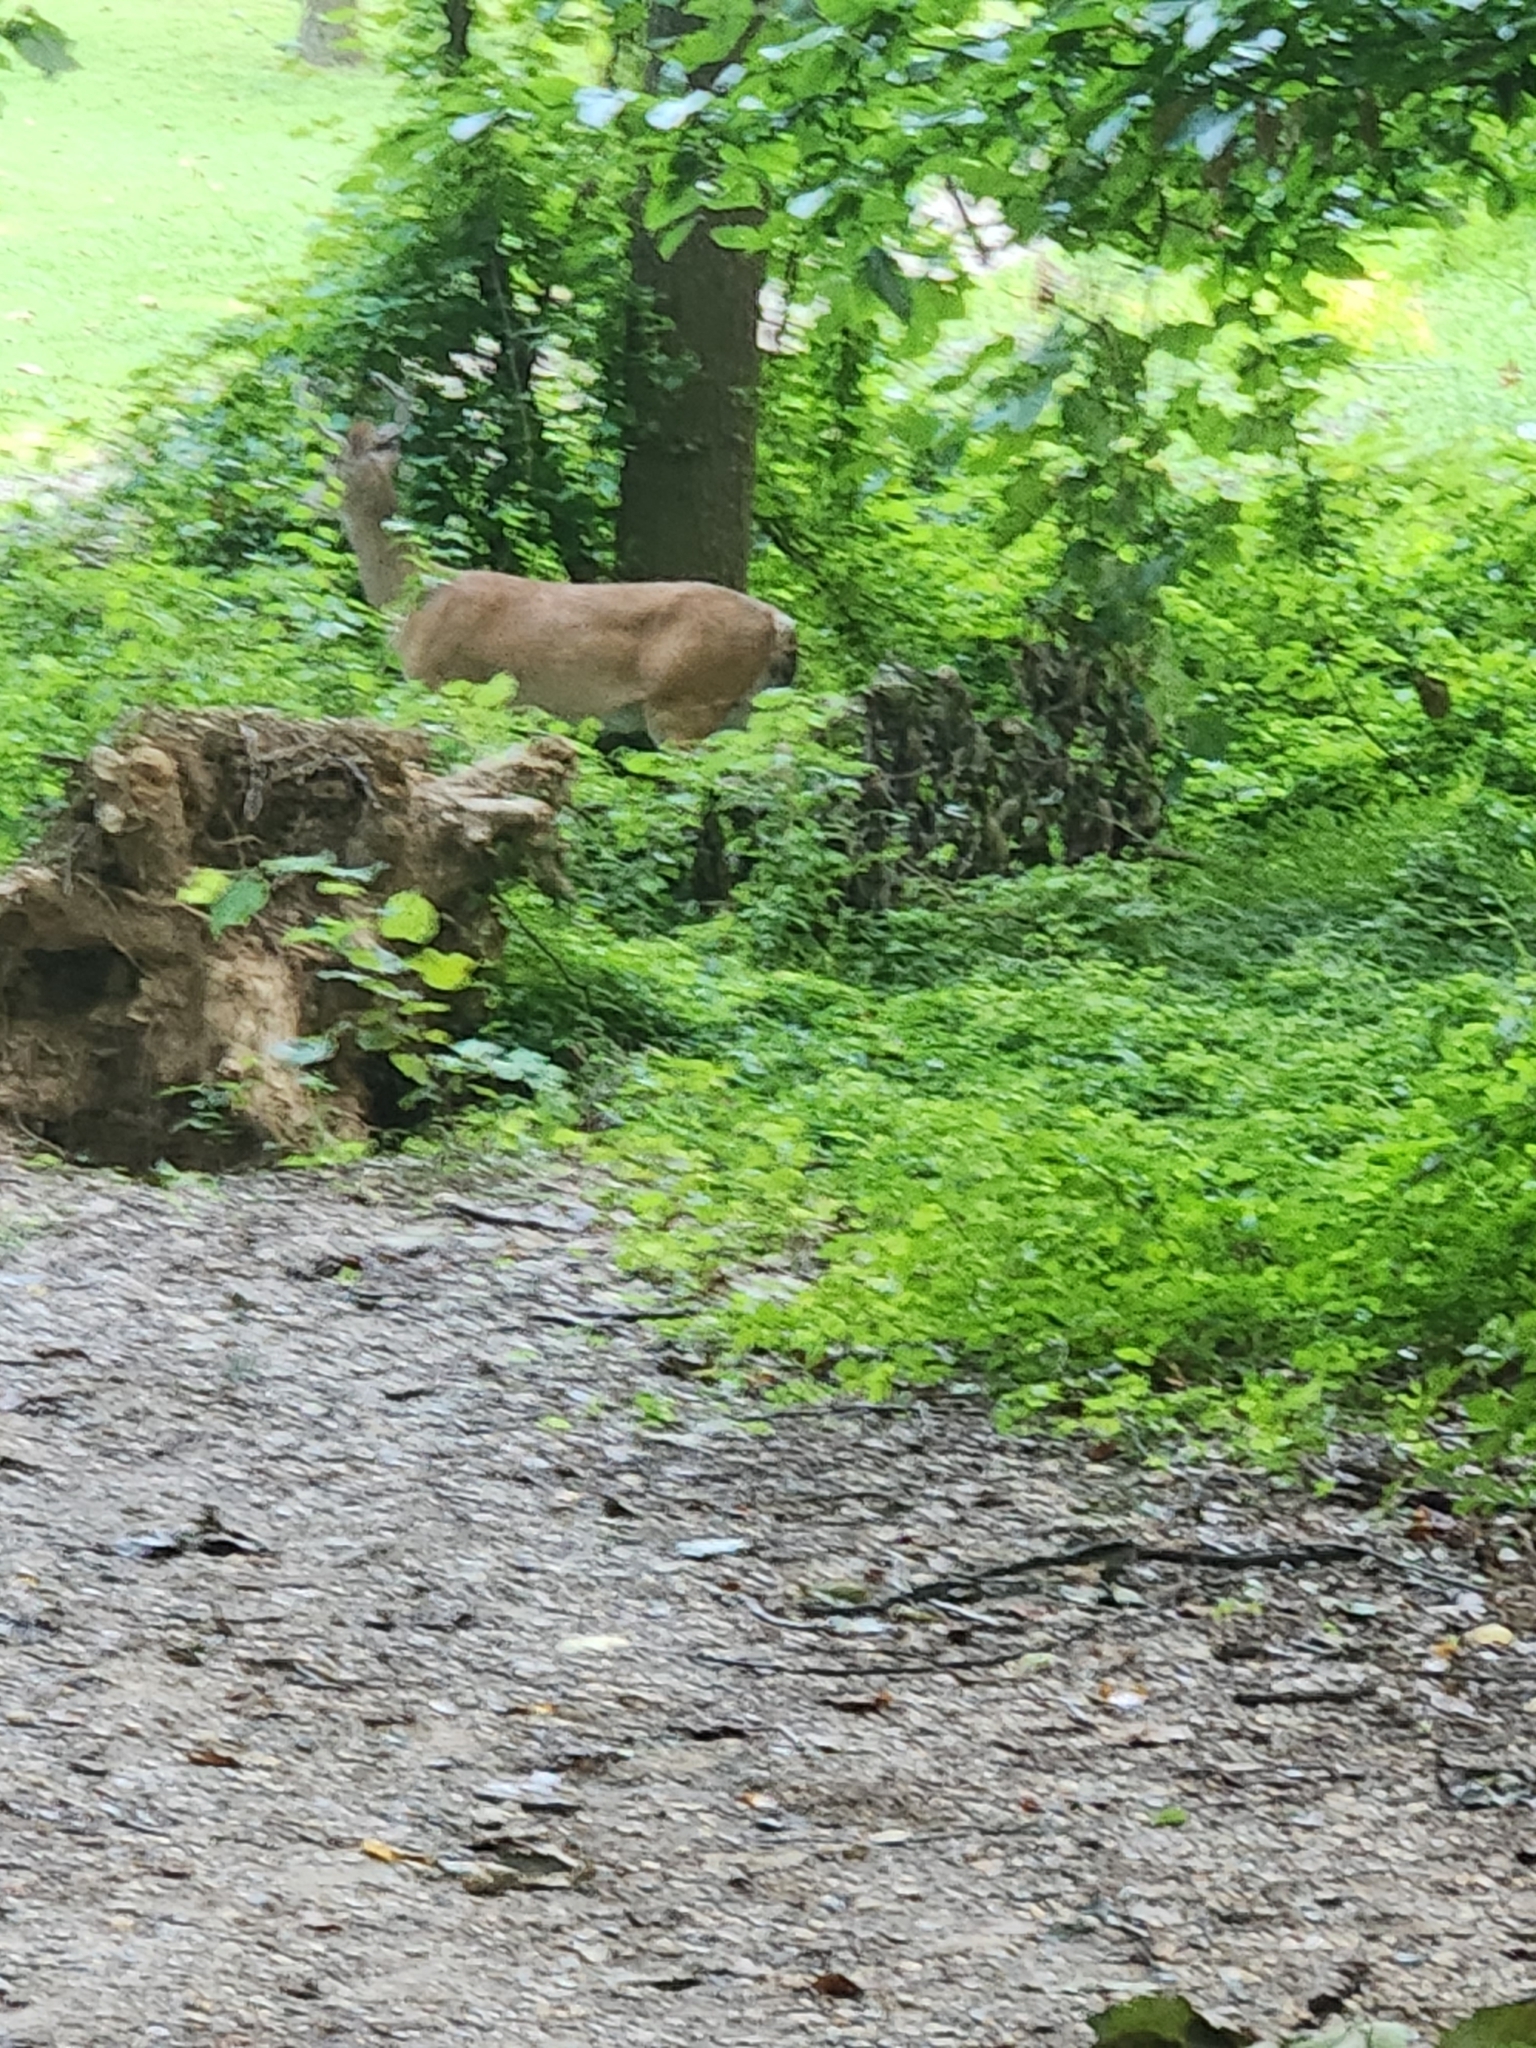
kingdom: Animalia
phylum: Chordata
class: Mammalia
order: Artiodactyla
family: Cervidae
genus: Odocoileus
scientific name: Odocoileus virginianus
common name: White-tailed deer
